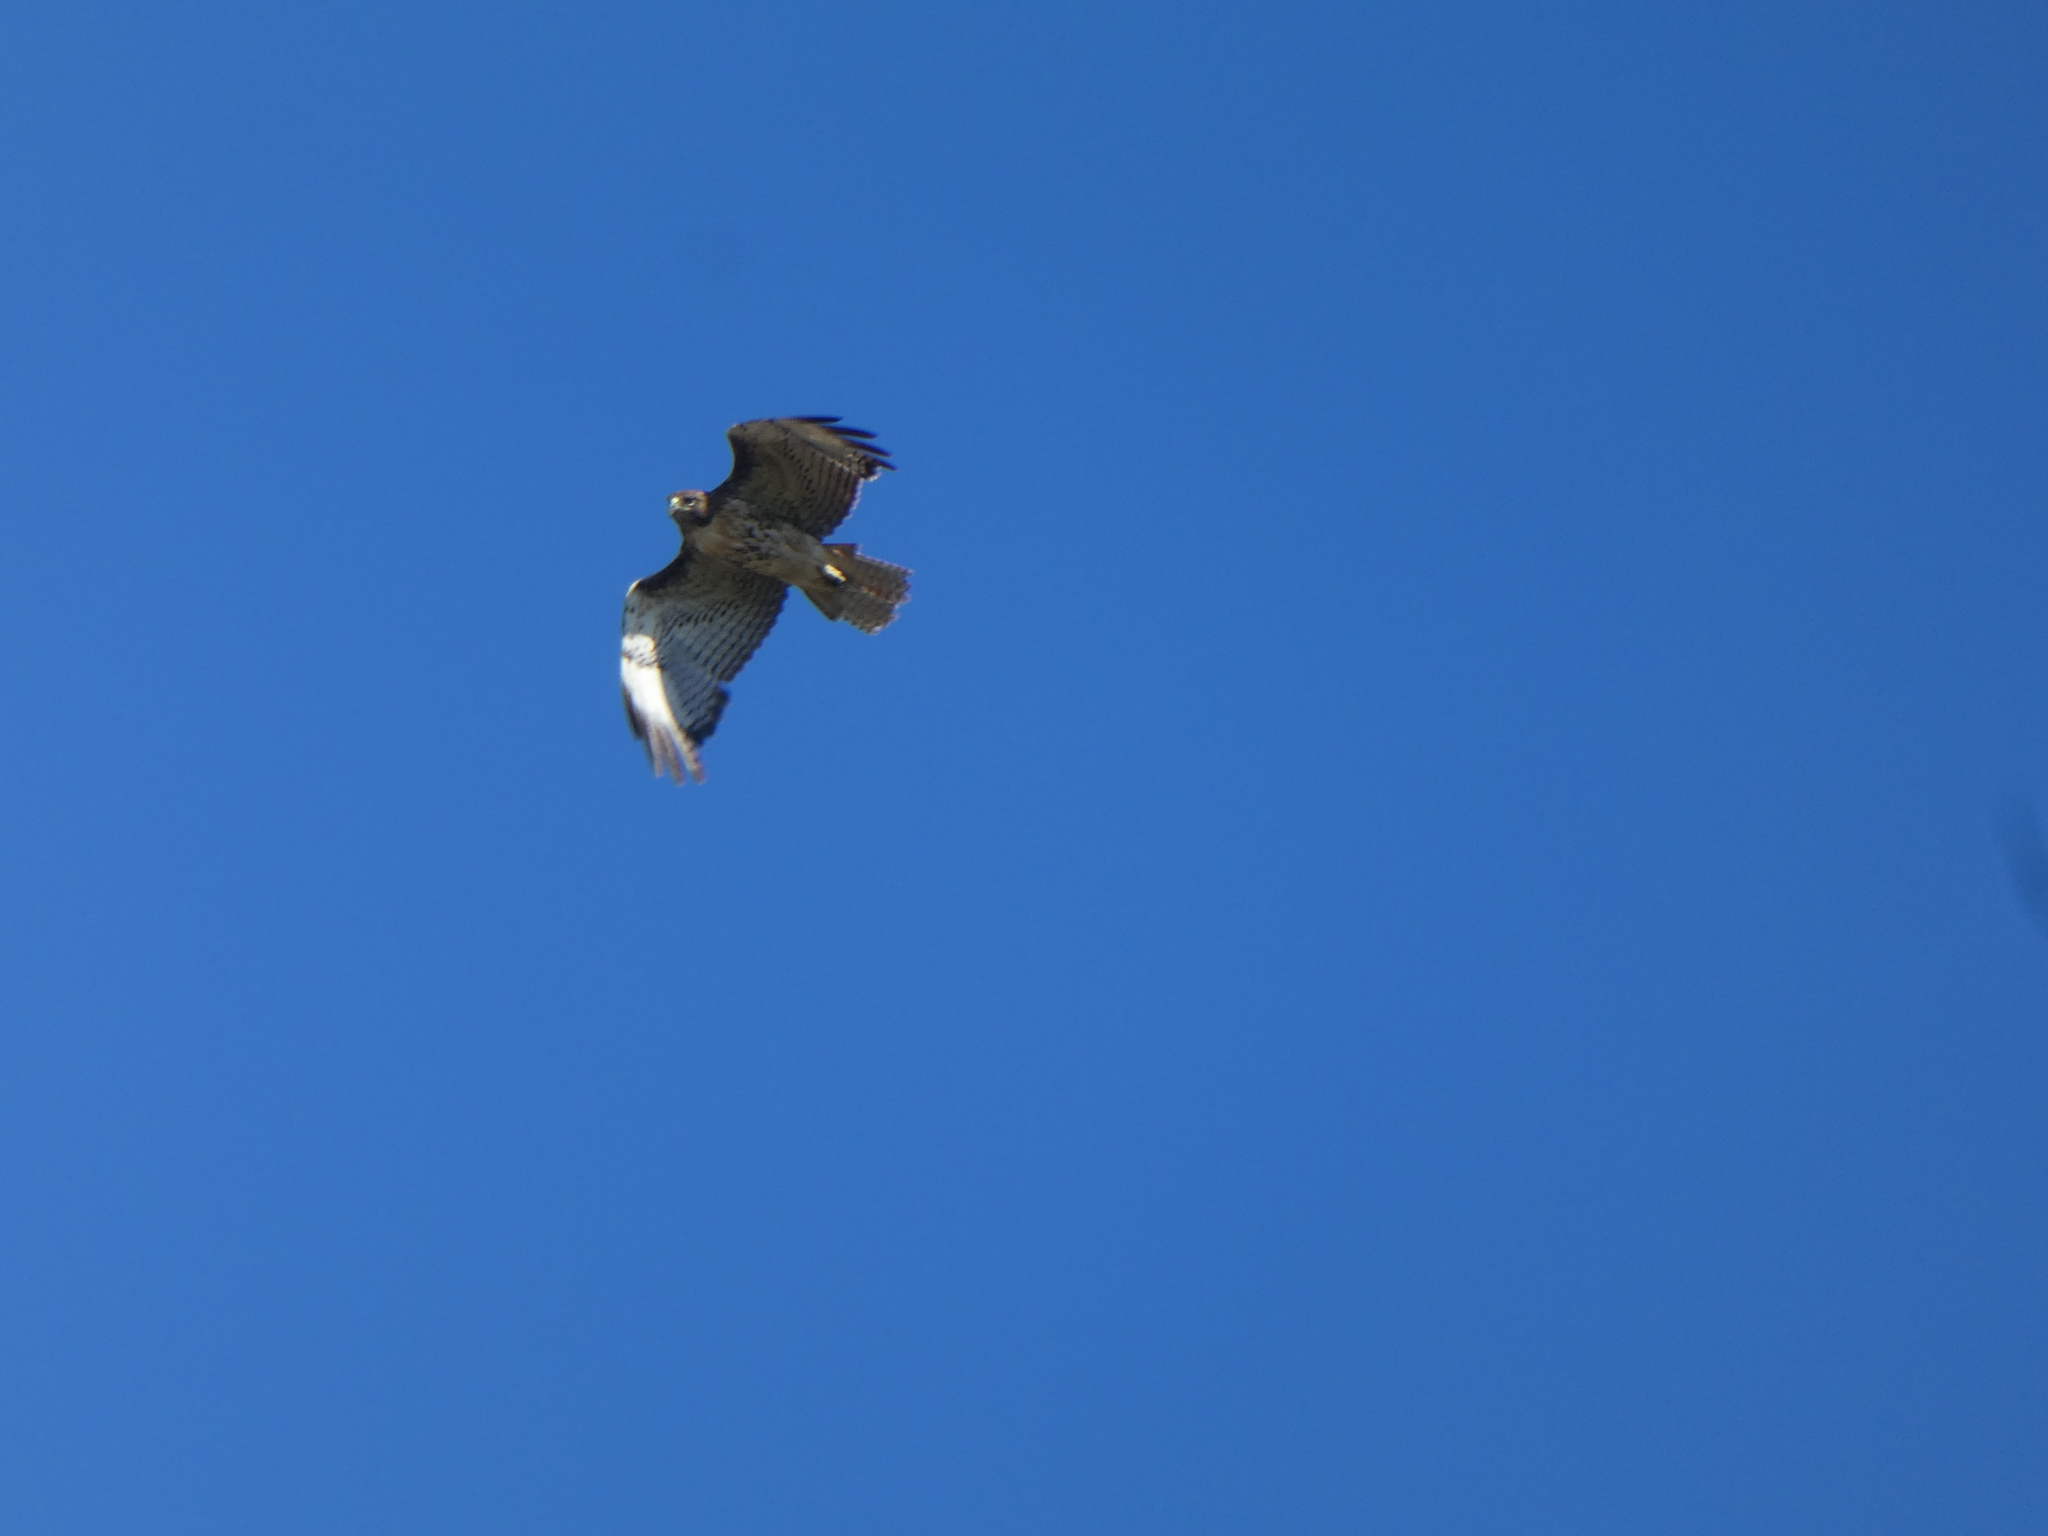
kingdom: Animalia
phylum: Chordata
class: Aves
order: Accipitriformes
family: Accipitridae
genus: Buteo
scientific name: Buteo jamaicensis
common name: Red-tailed hawk
